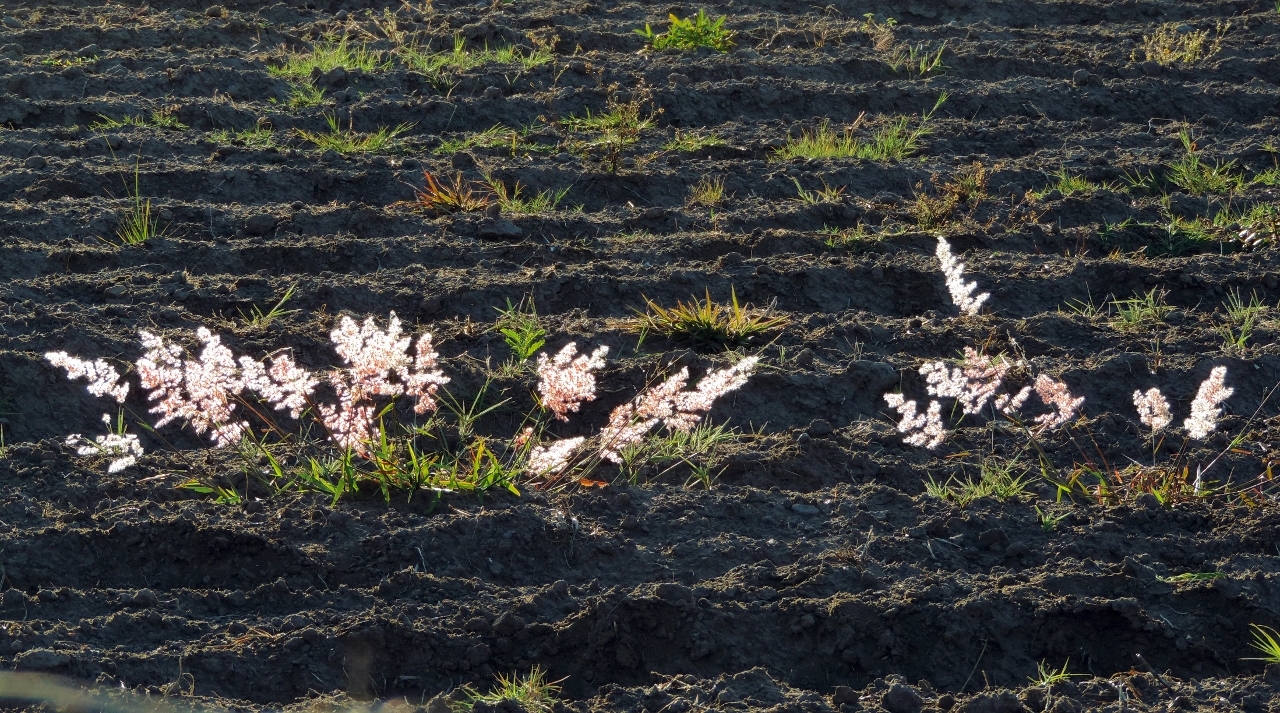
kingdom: Plantae
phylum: Tracheophyta
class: Liliopsida
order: Poales
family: Poaceae
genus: Melinis
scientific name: Melinis repens
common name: Rose natal grass
